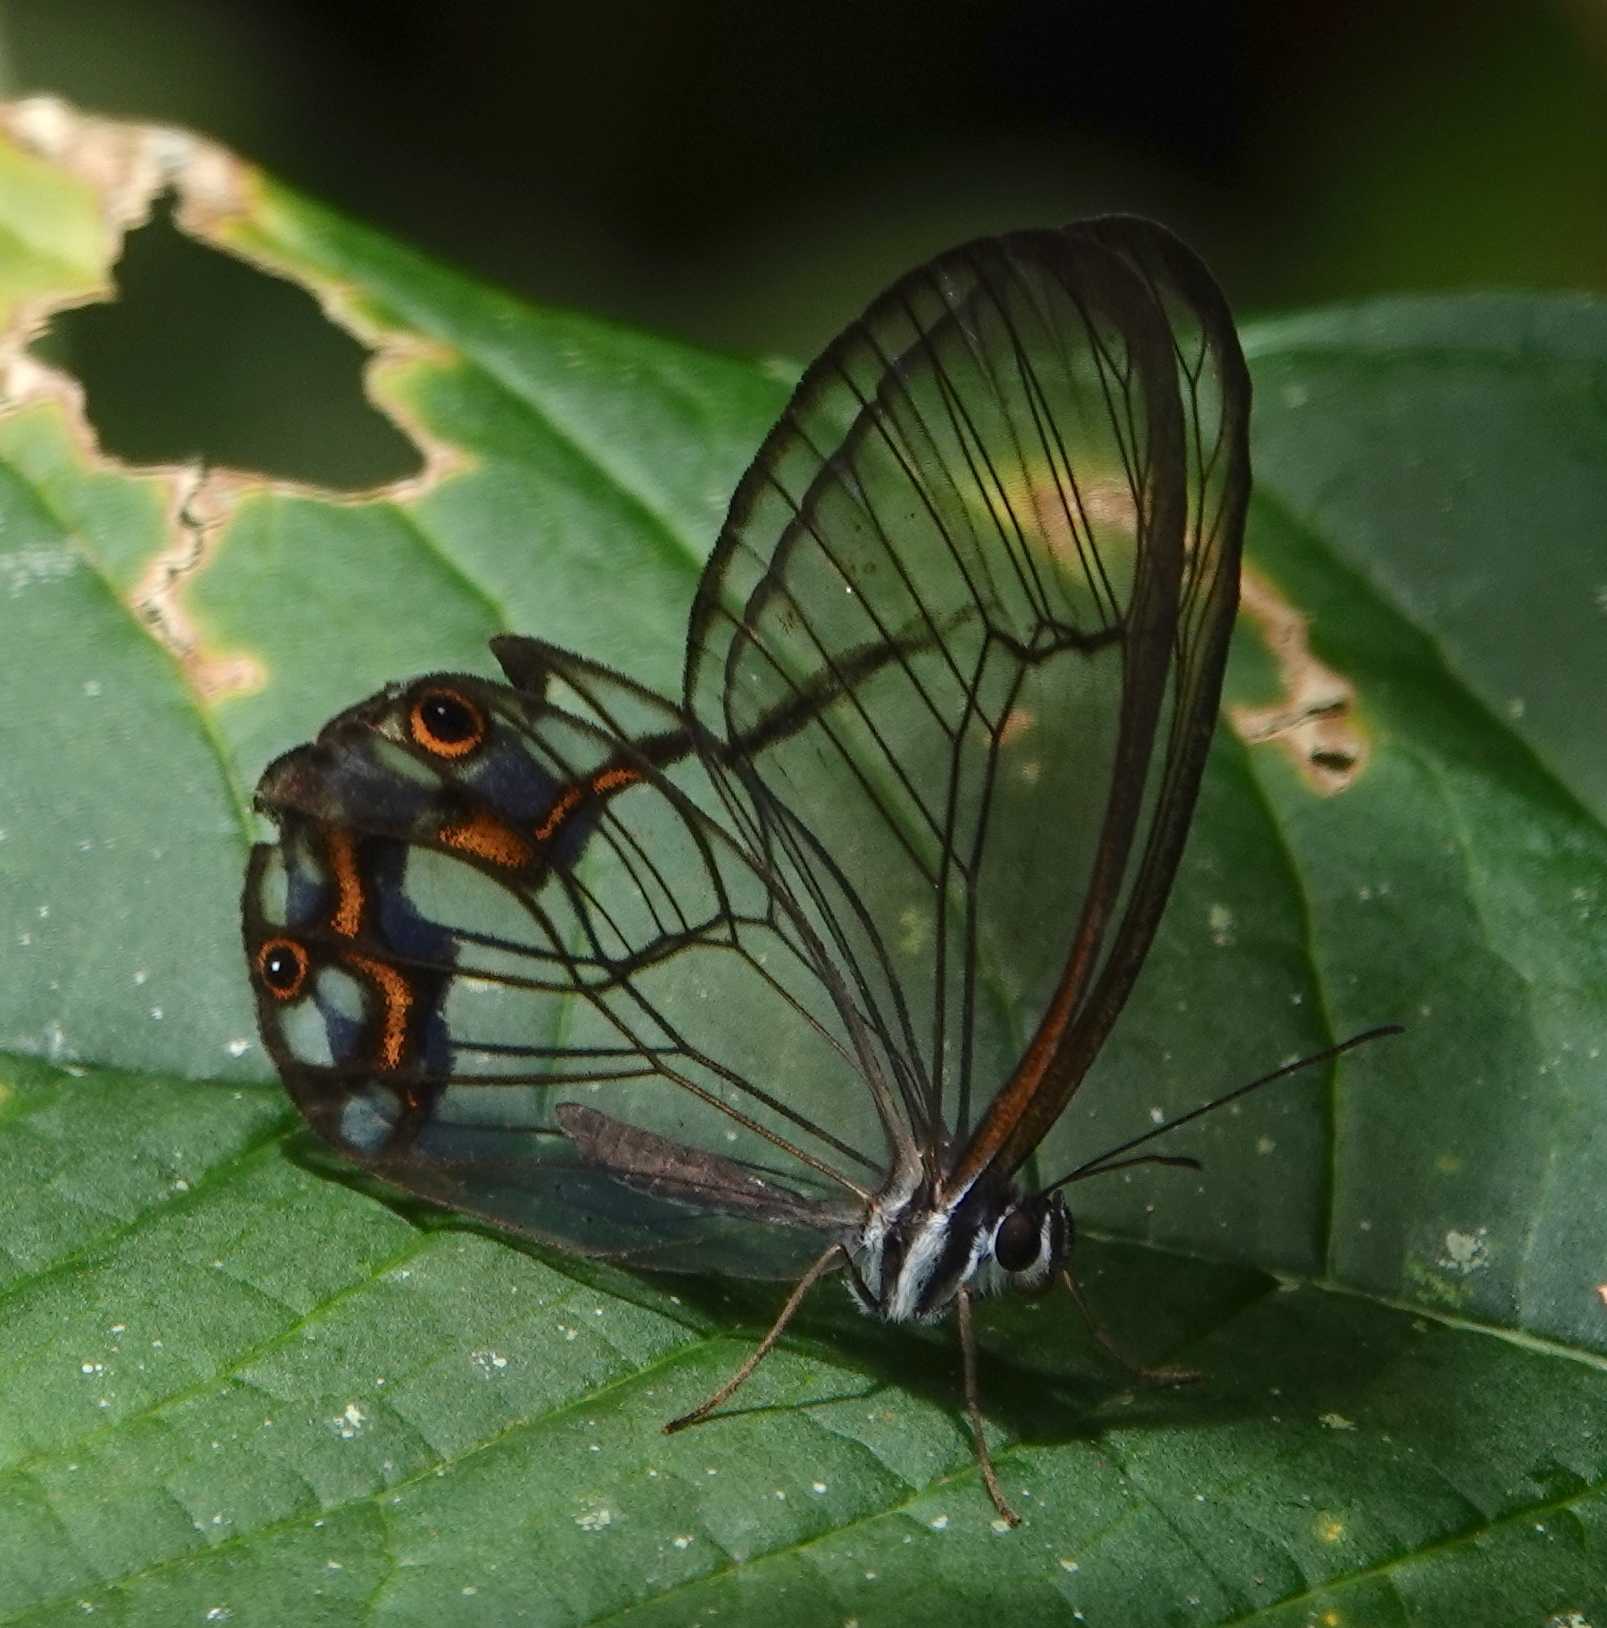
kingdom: Animalia
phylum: Arthropoda
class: Insecta
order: Lepidoptera
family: Nymphalidae
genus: Pseudohaetera
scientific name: Pseudohaetera hypaesia
